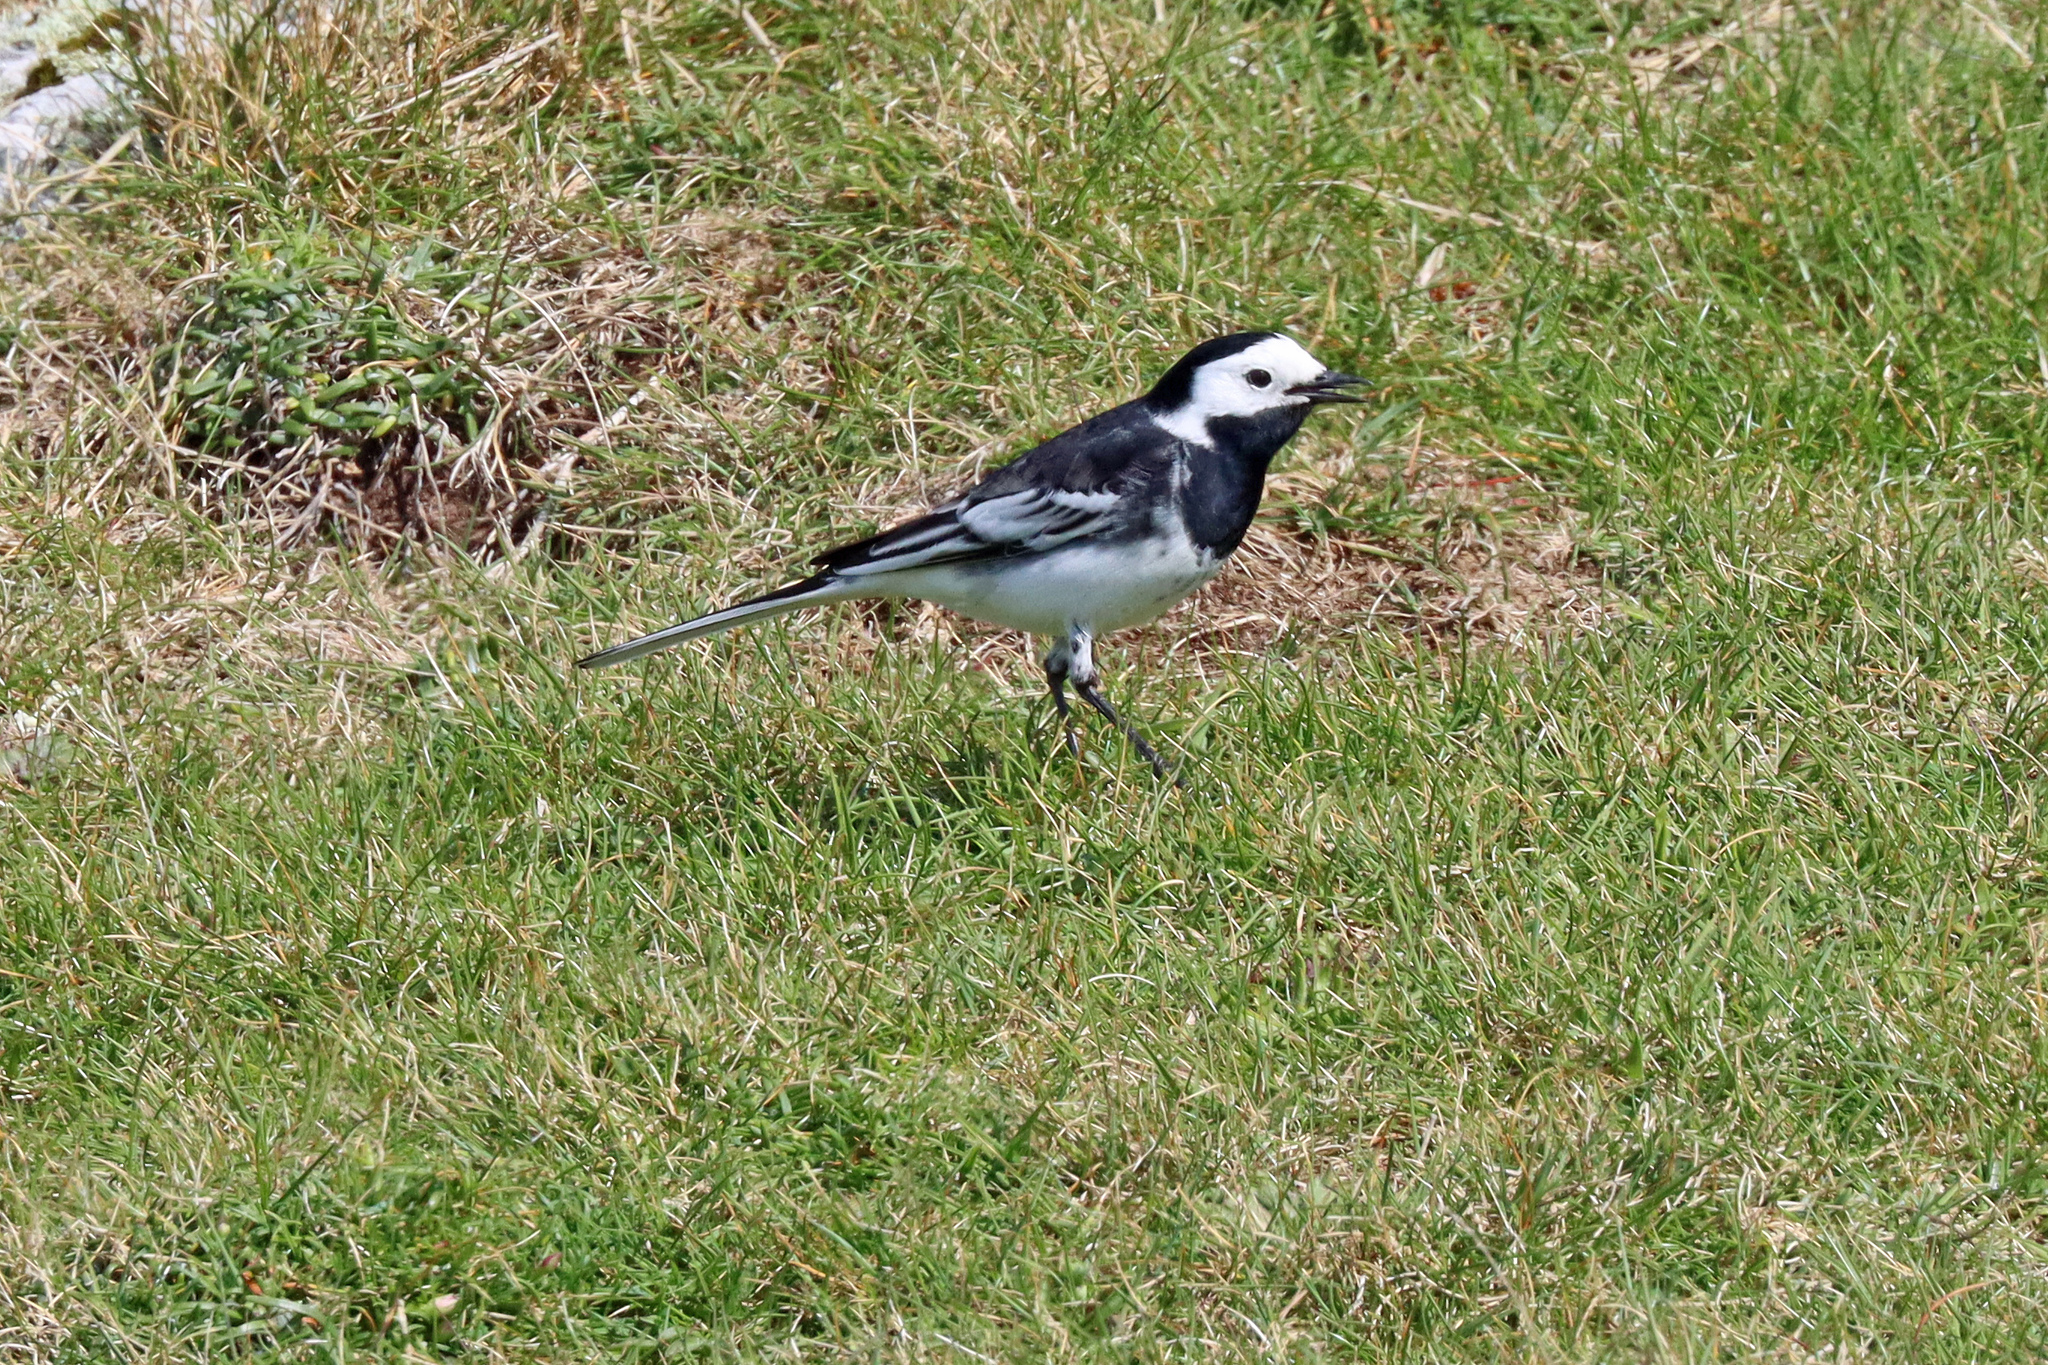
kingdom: Animalia
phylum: Chordata
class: Aves
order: Passeriformes
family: Motacillidae
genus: Motacilla
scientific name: Motacilla alba
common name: White wagtail
